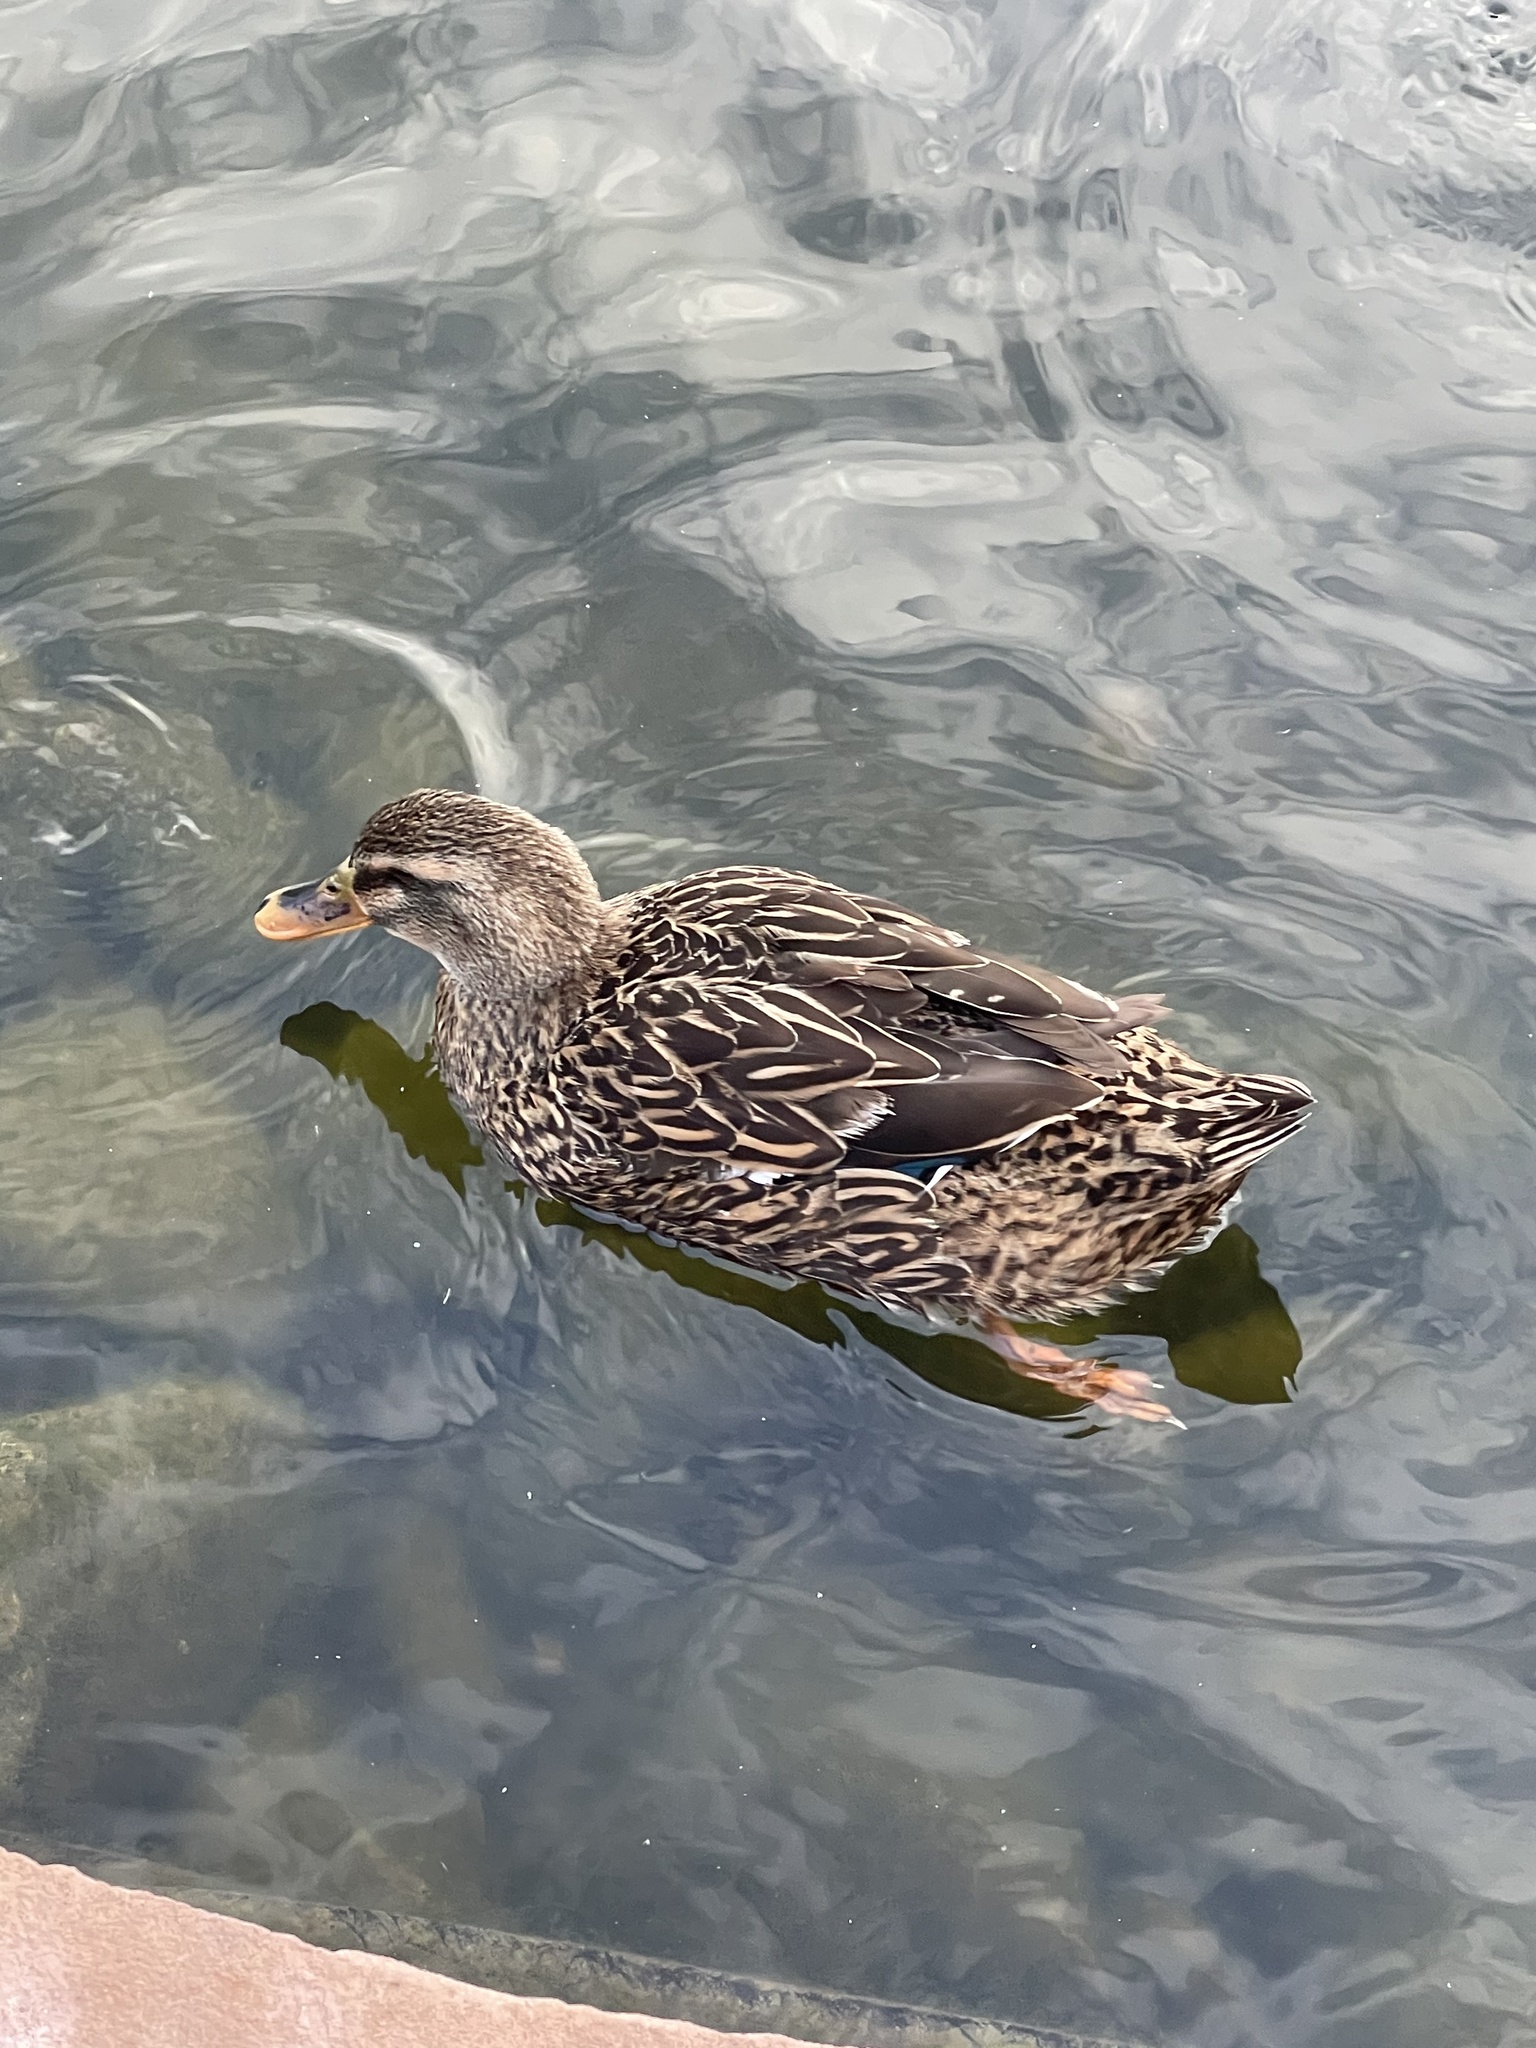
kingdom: Animalia
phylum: Chordata
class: Aves
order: Anseriformes
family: Anatidae
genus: Anas
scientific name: Anas platyrhynchos
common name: Mallard
